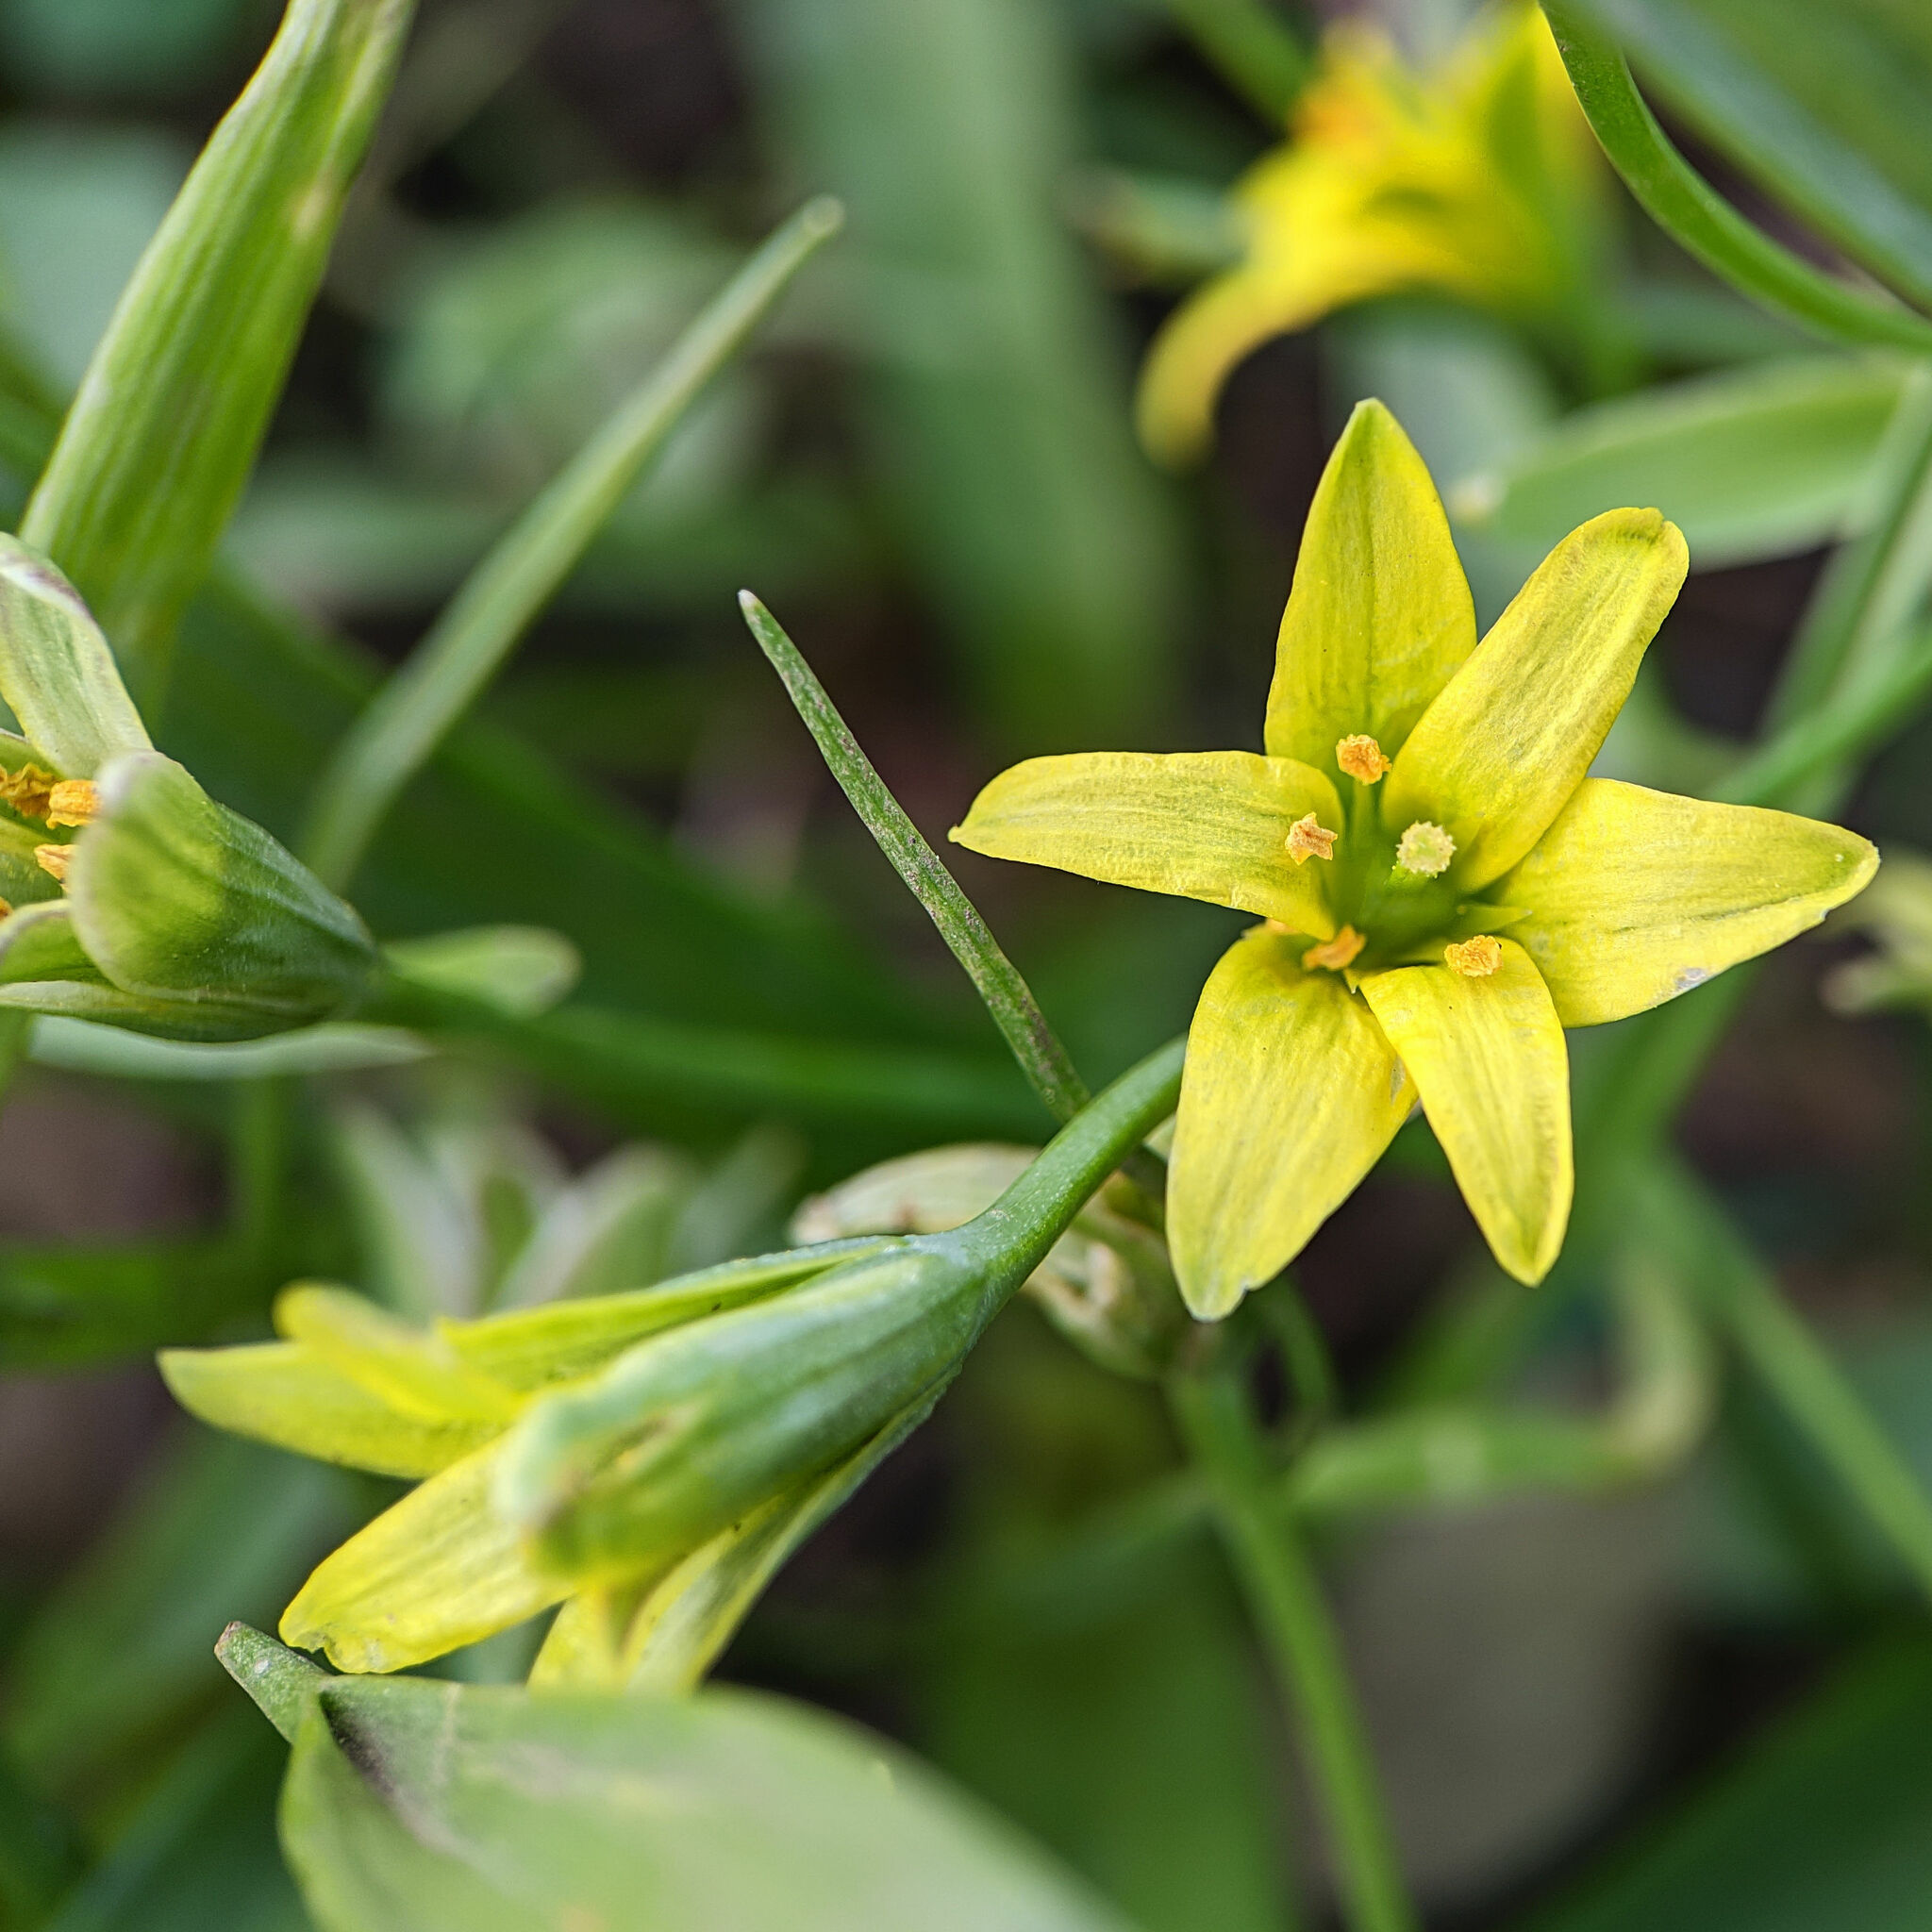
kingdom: Plantae
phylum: Tracheophyta
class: Liliopsida
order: Liliales
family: Liliaceae
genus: Gagea
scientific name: Gagea lutea
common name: Yellow star-of-bethlehem
